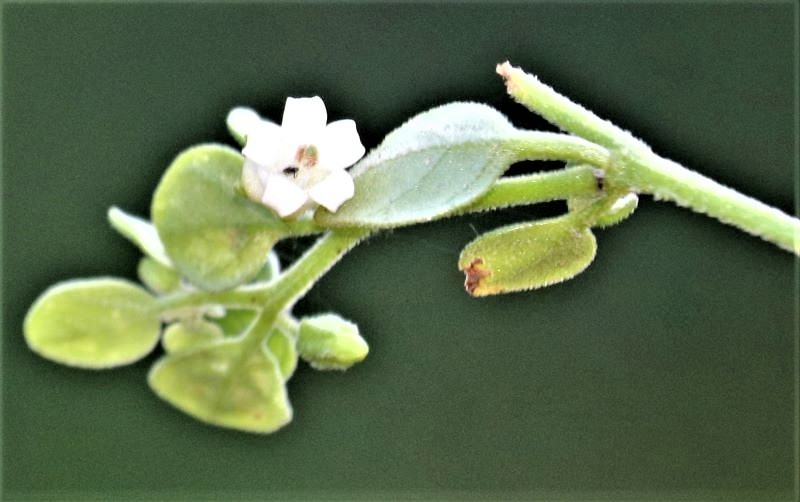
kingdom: Plantae
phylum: Tracheophyta
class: Magnoliopsida
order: Solanales
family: Solanaceae
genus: Salpichroa
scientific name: Salpichroa origanifolia
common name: Lily-of-the-valley-vine
